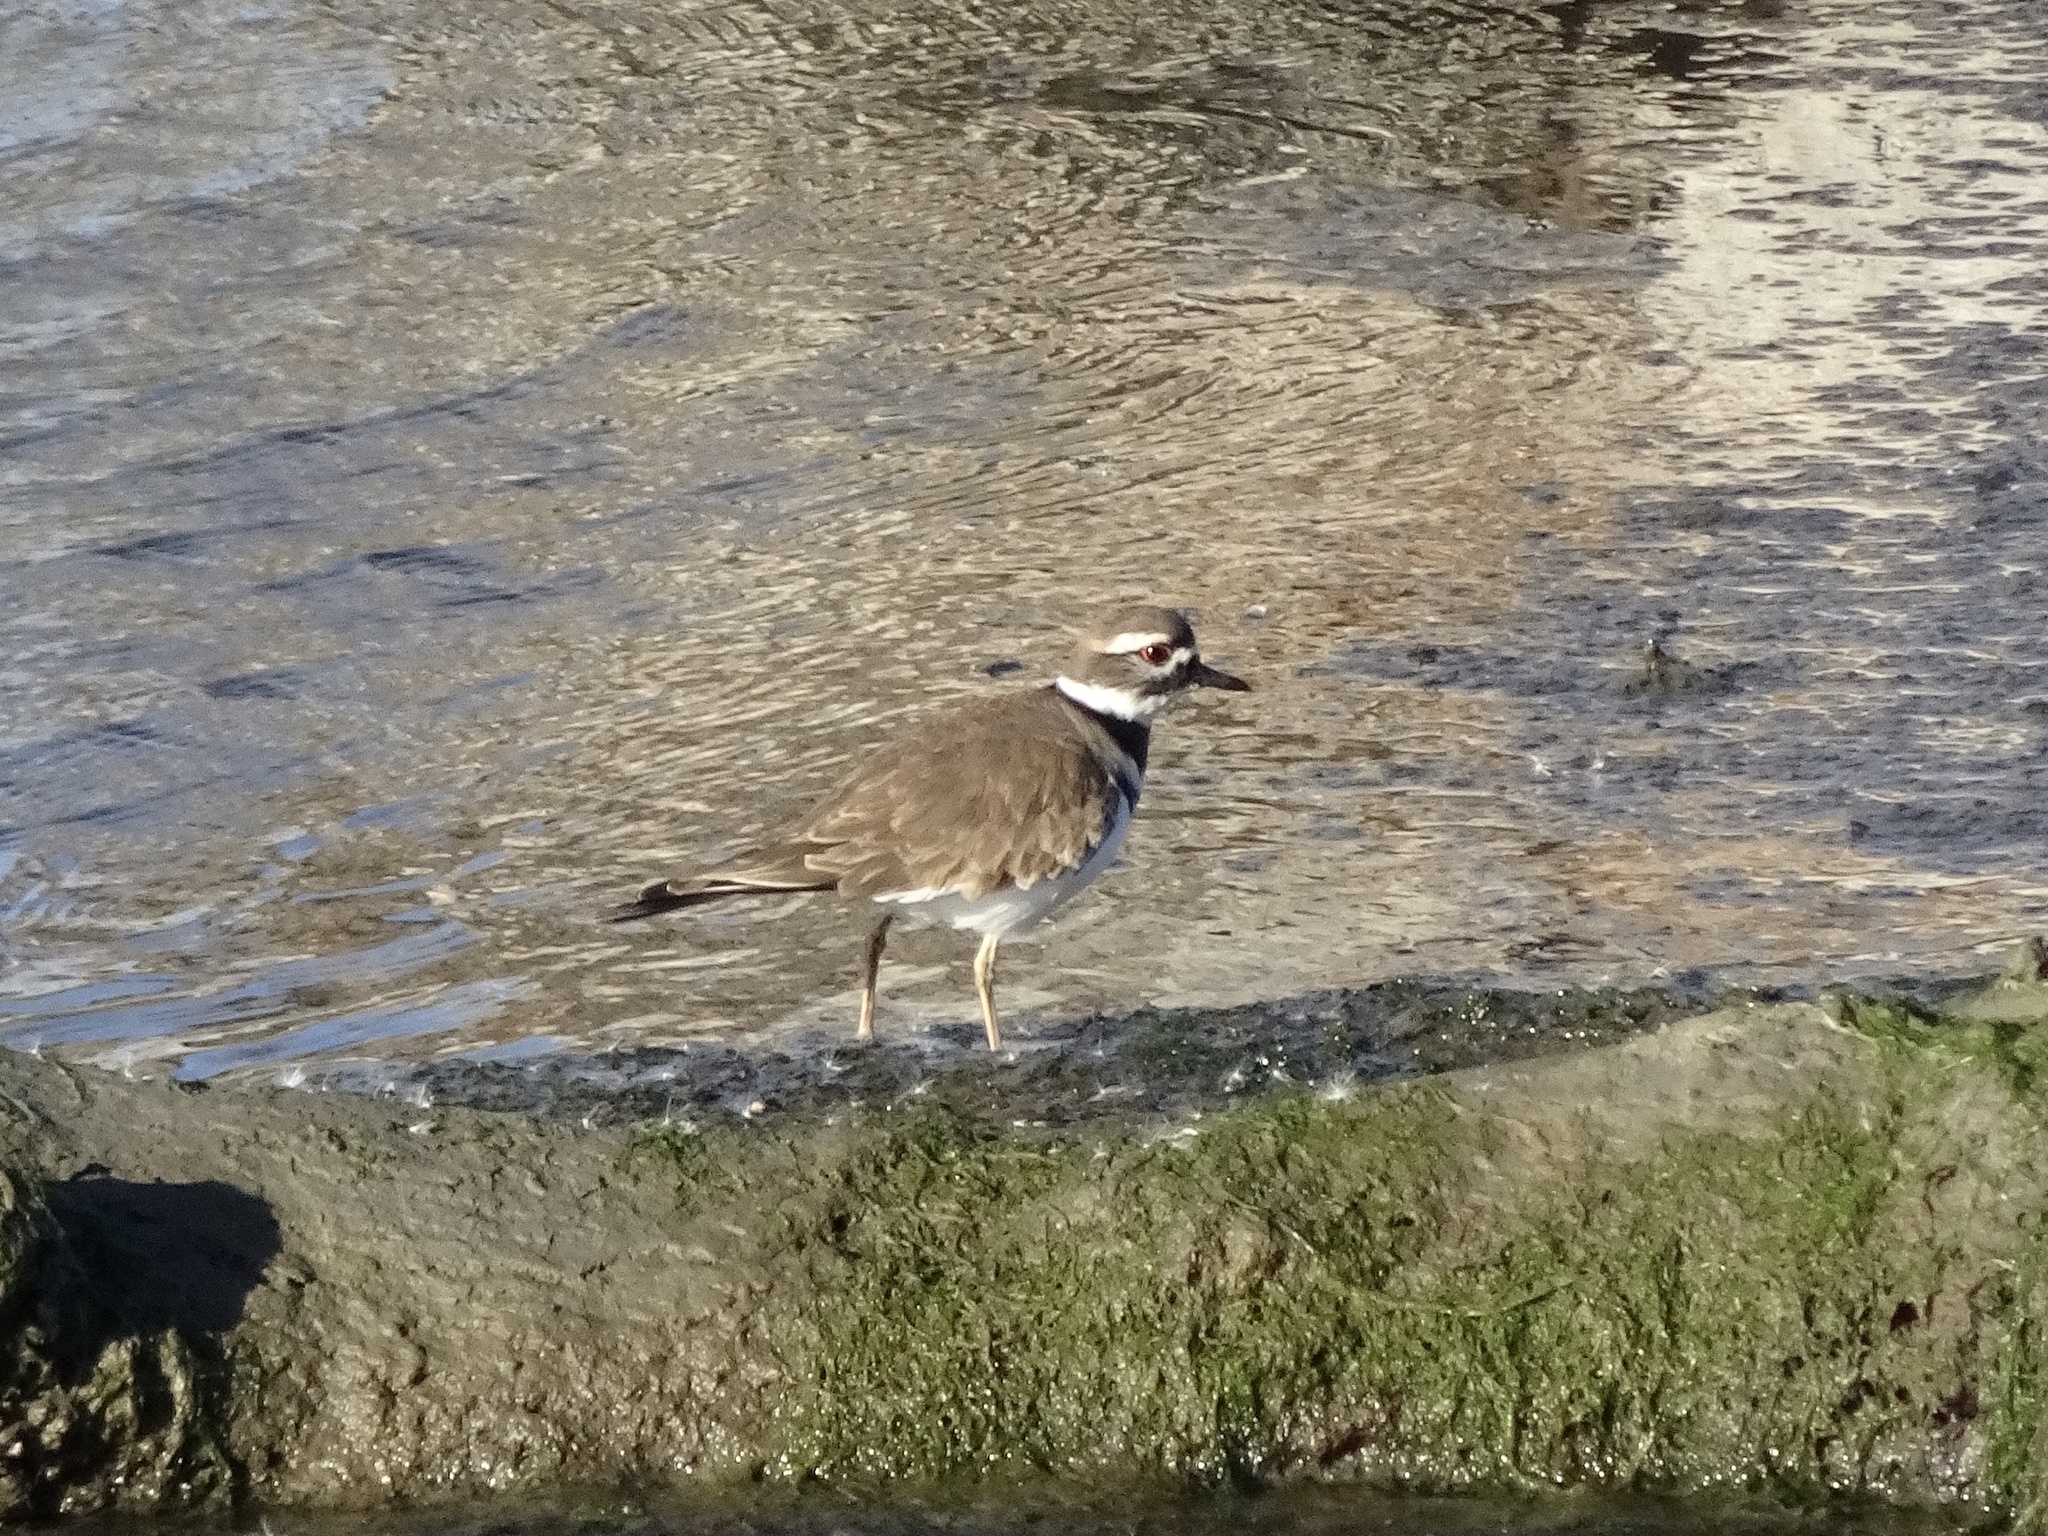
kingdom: Animalia
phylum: Chordata
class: Aves
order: Charadriiformes
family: Charadriidae
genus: Charadrius
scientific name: Charadrius vociferus
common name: Killdeer
